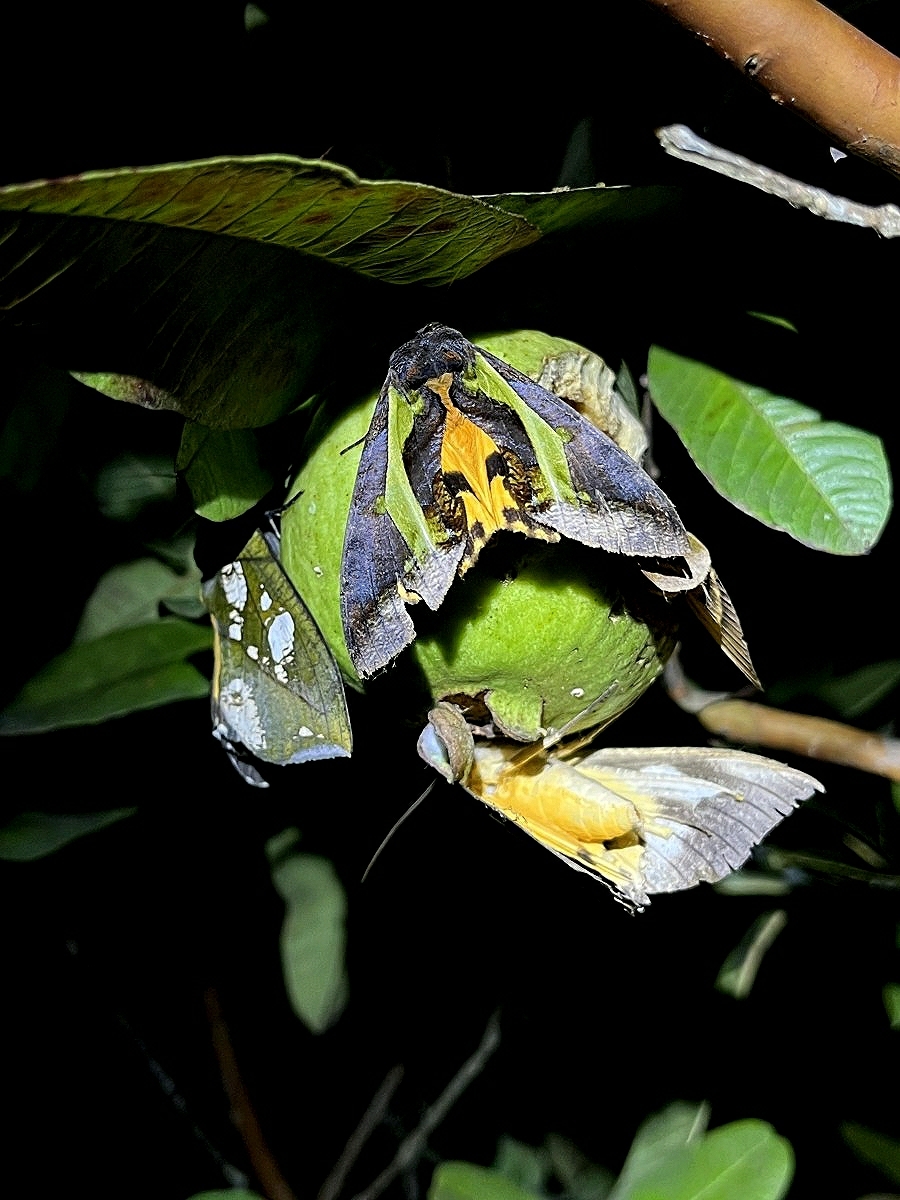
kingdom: Animalia
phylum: Arthropoda
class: Insecta
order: Lepidoptera
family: Erebidae
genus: Eudocima
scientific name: Eudocima homaena
